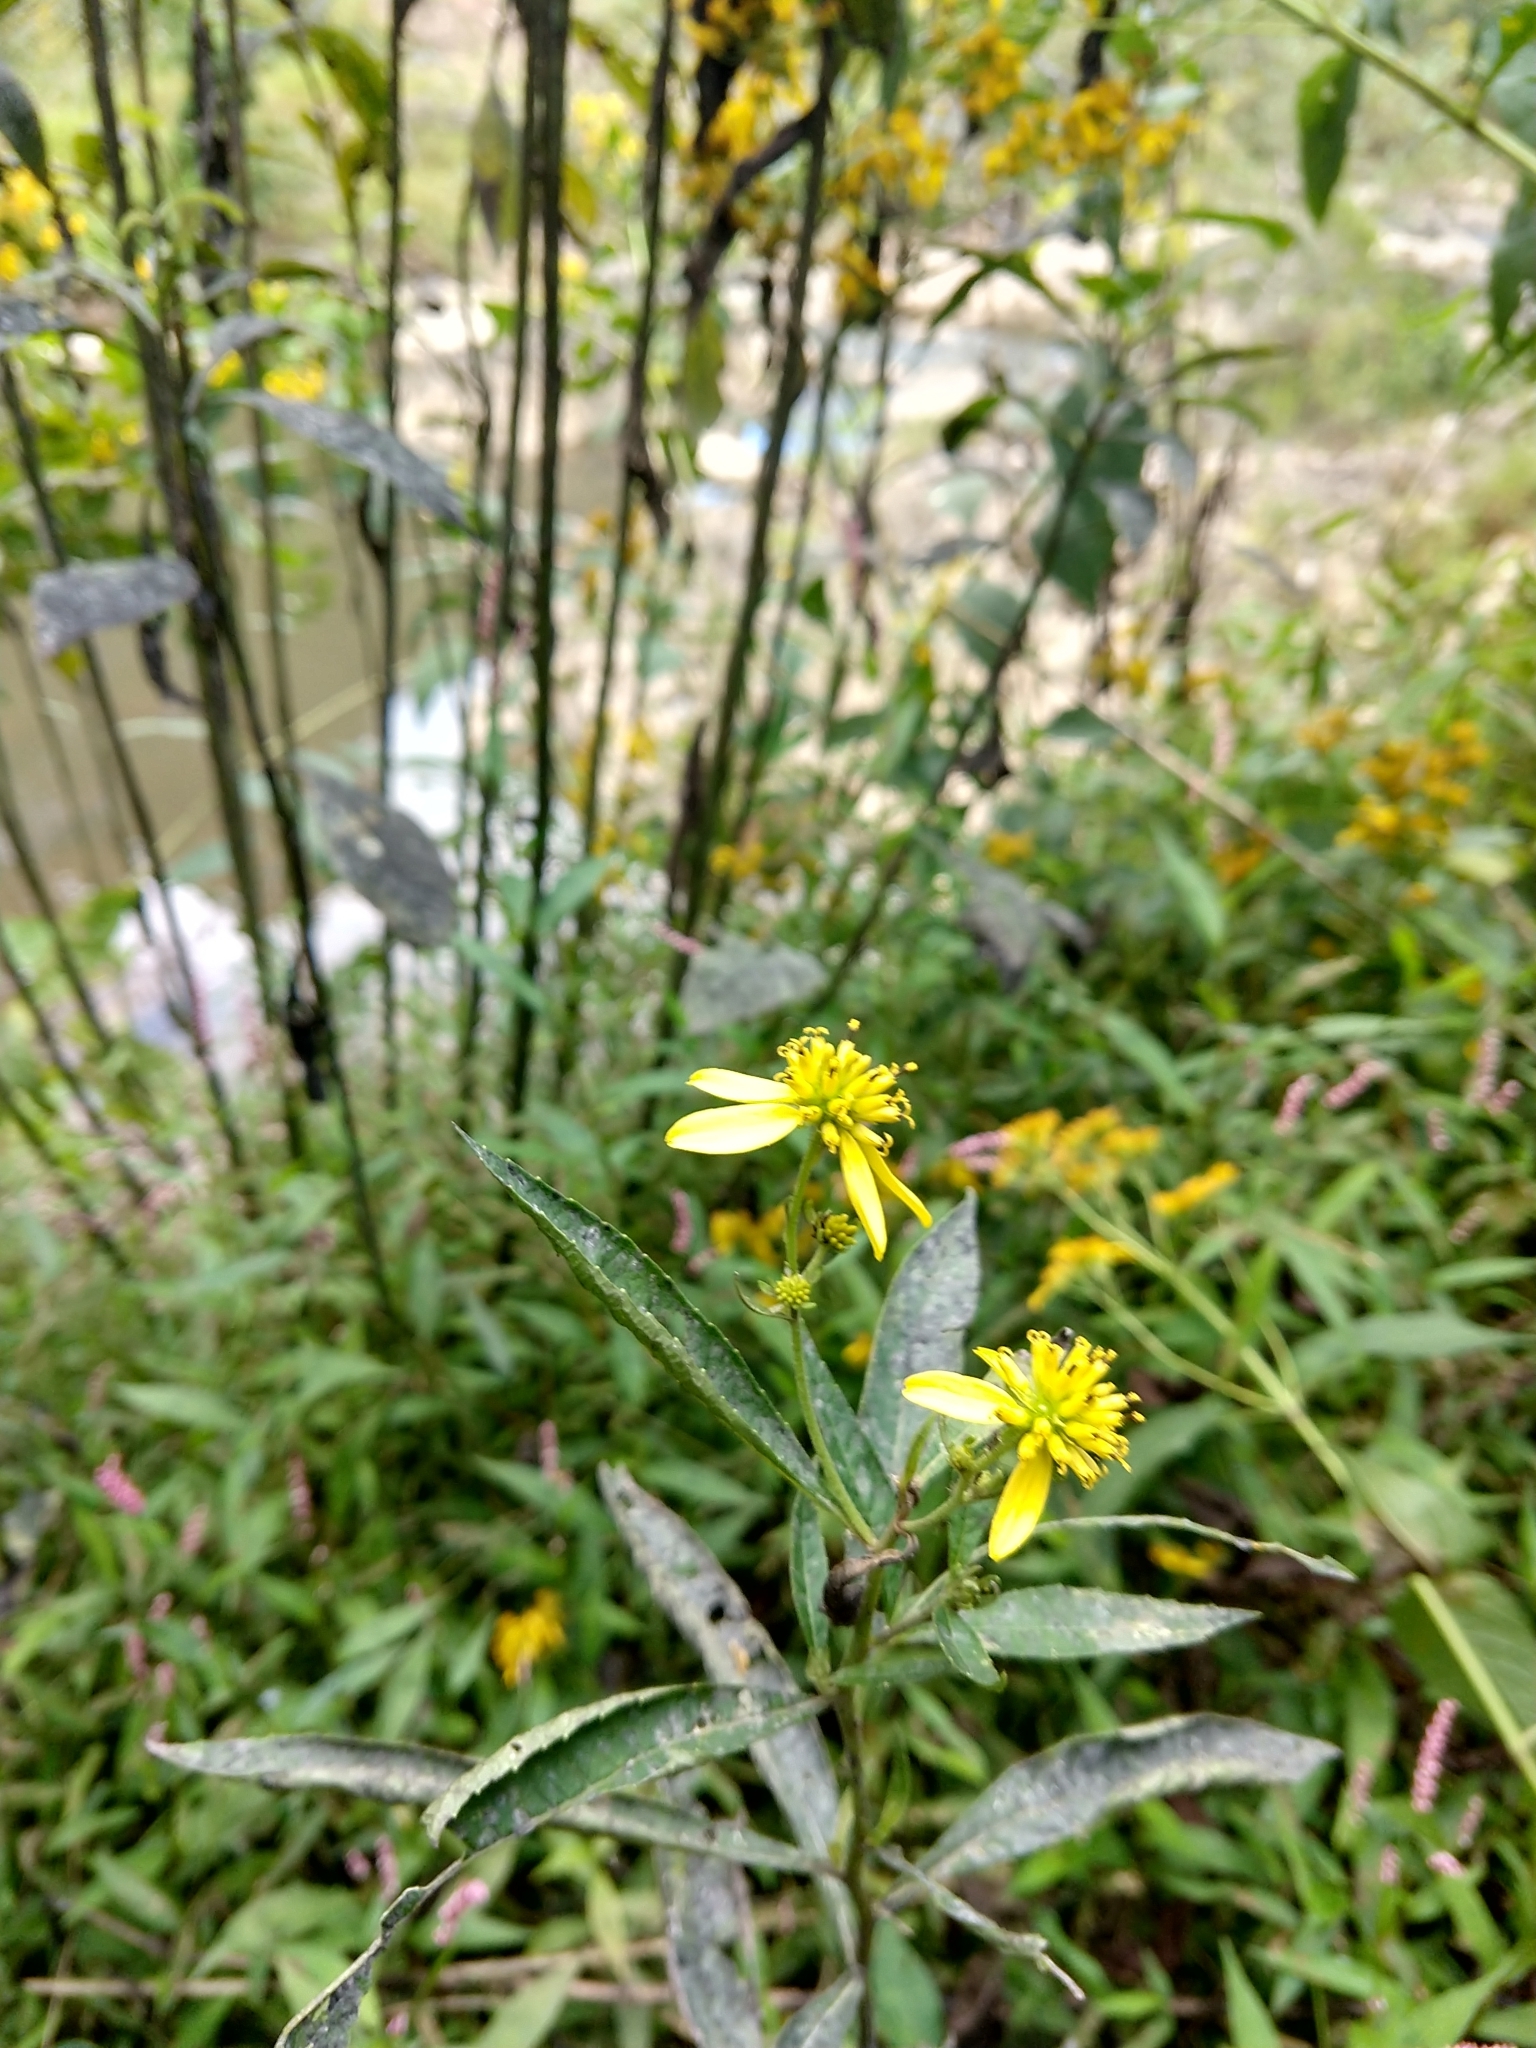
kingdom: Plantae
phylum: Tracheophyta
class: Magnoliopsida
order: Asterales
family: Asteraceae
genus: Verbesina
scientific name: Verbesina alternifolia
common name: Wingstem
